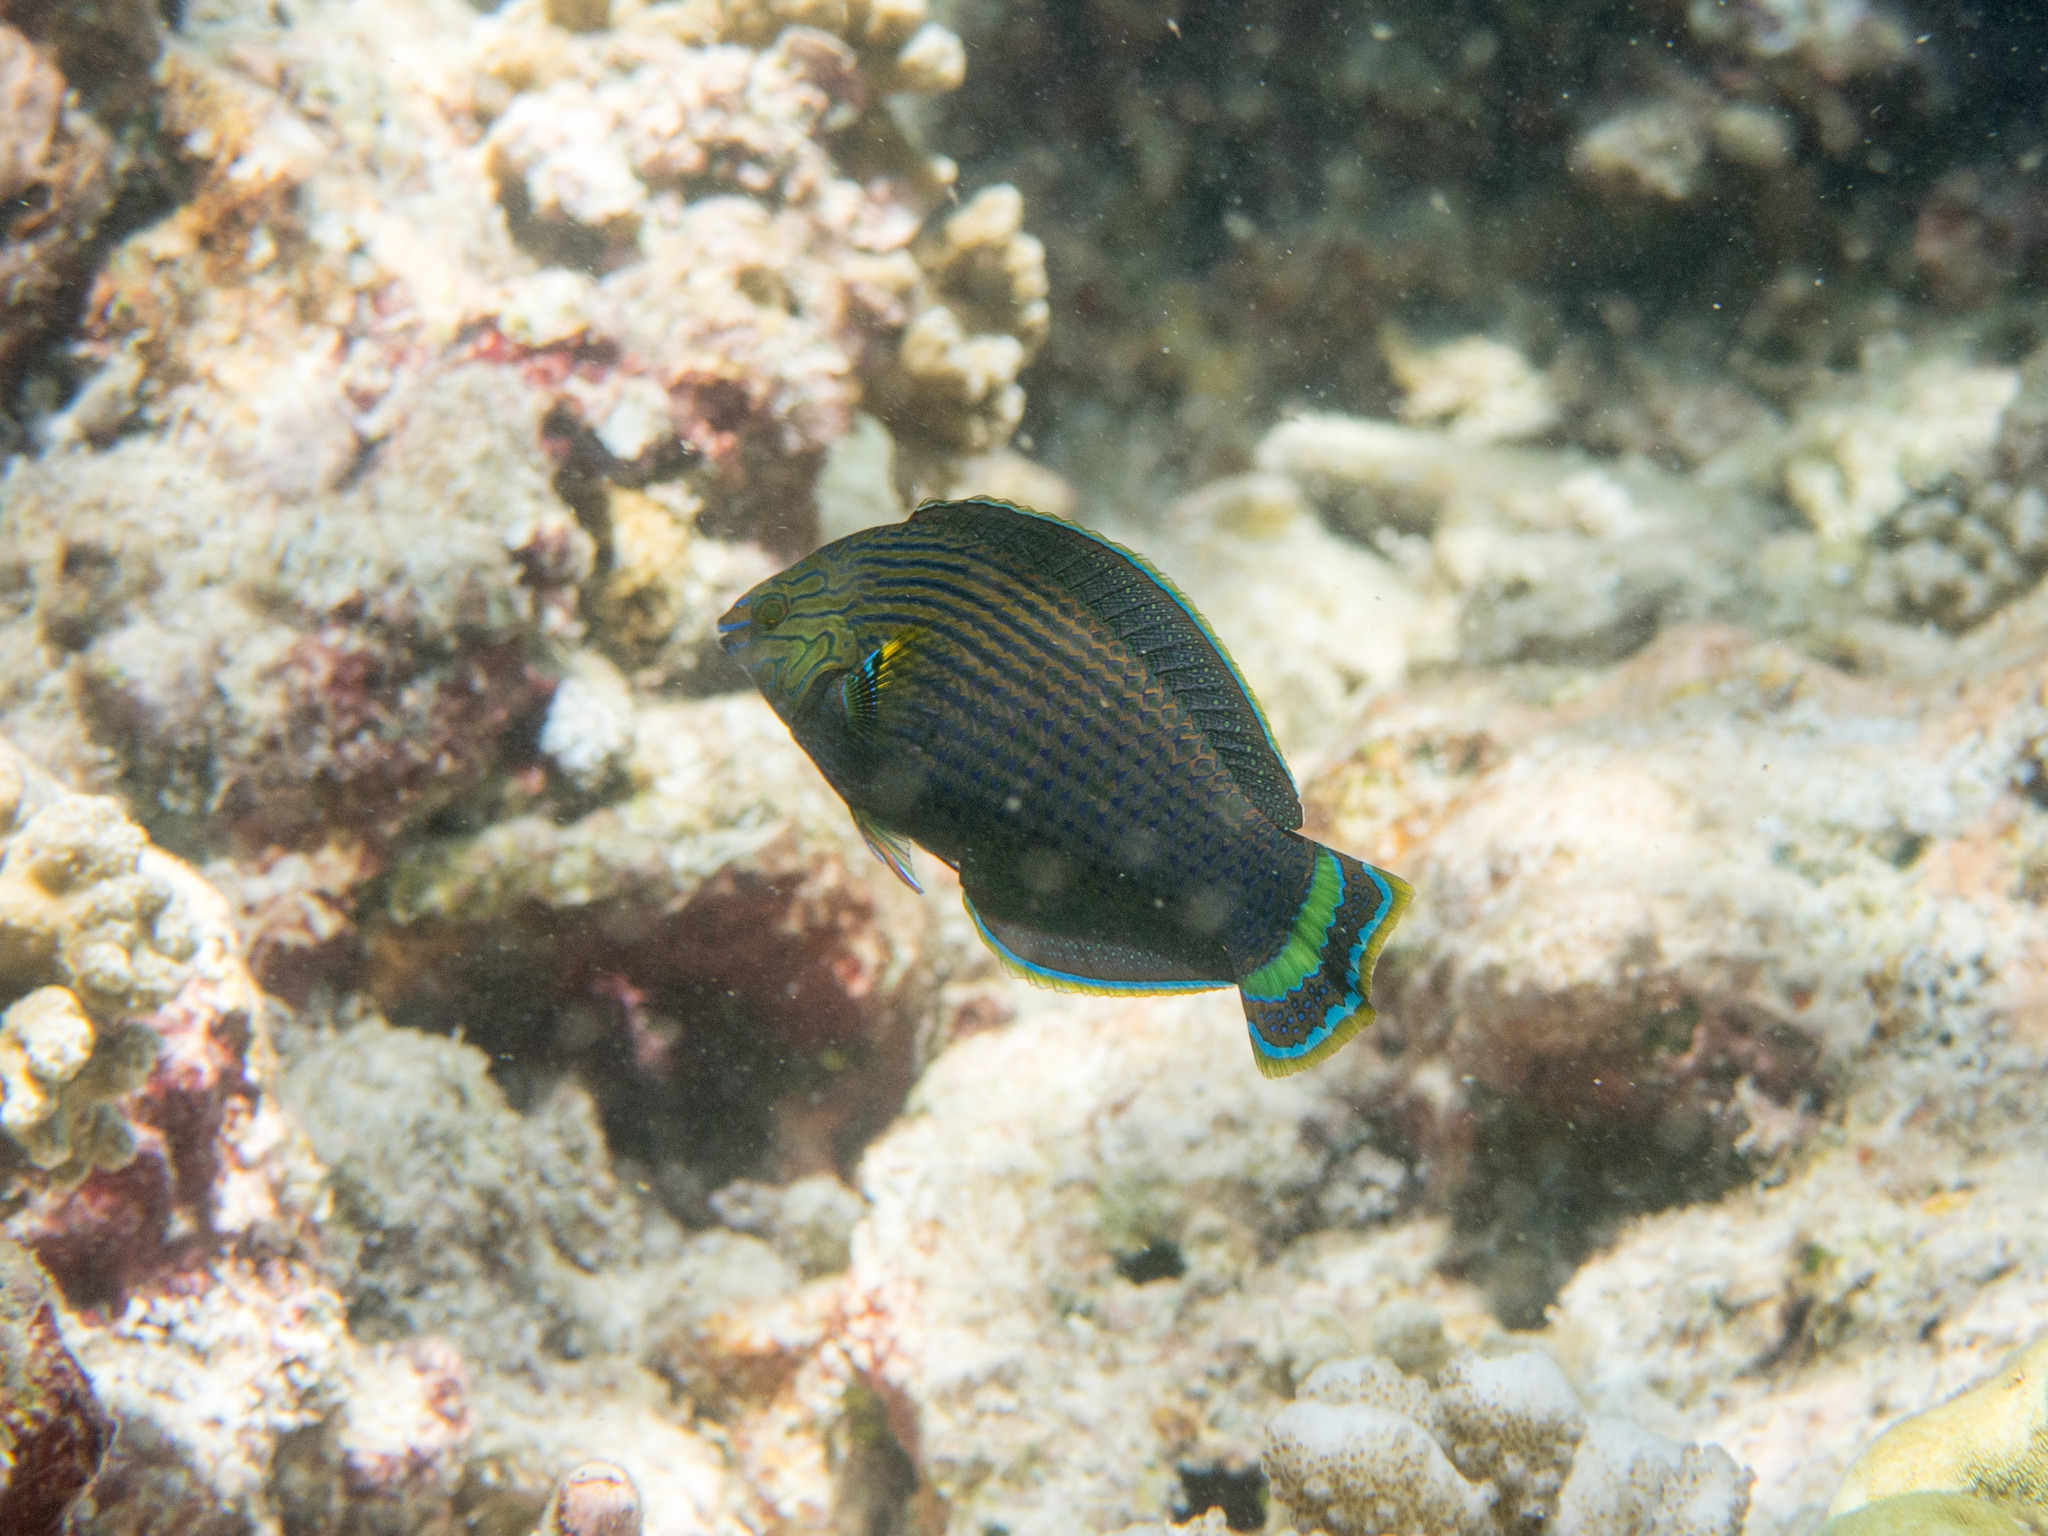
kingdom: Animalia
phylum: Chordata
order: Perciformes
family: Labridae
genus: Halichoeres
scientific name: Halichoeres marginatus
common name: Dusky wrasse
